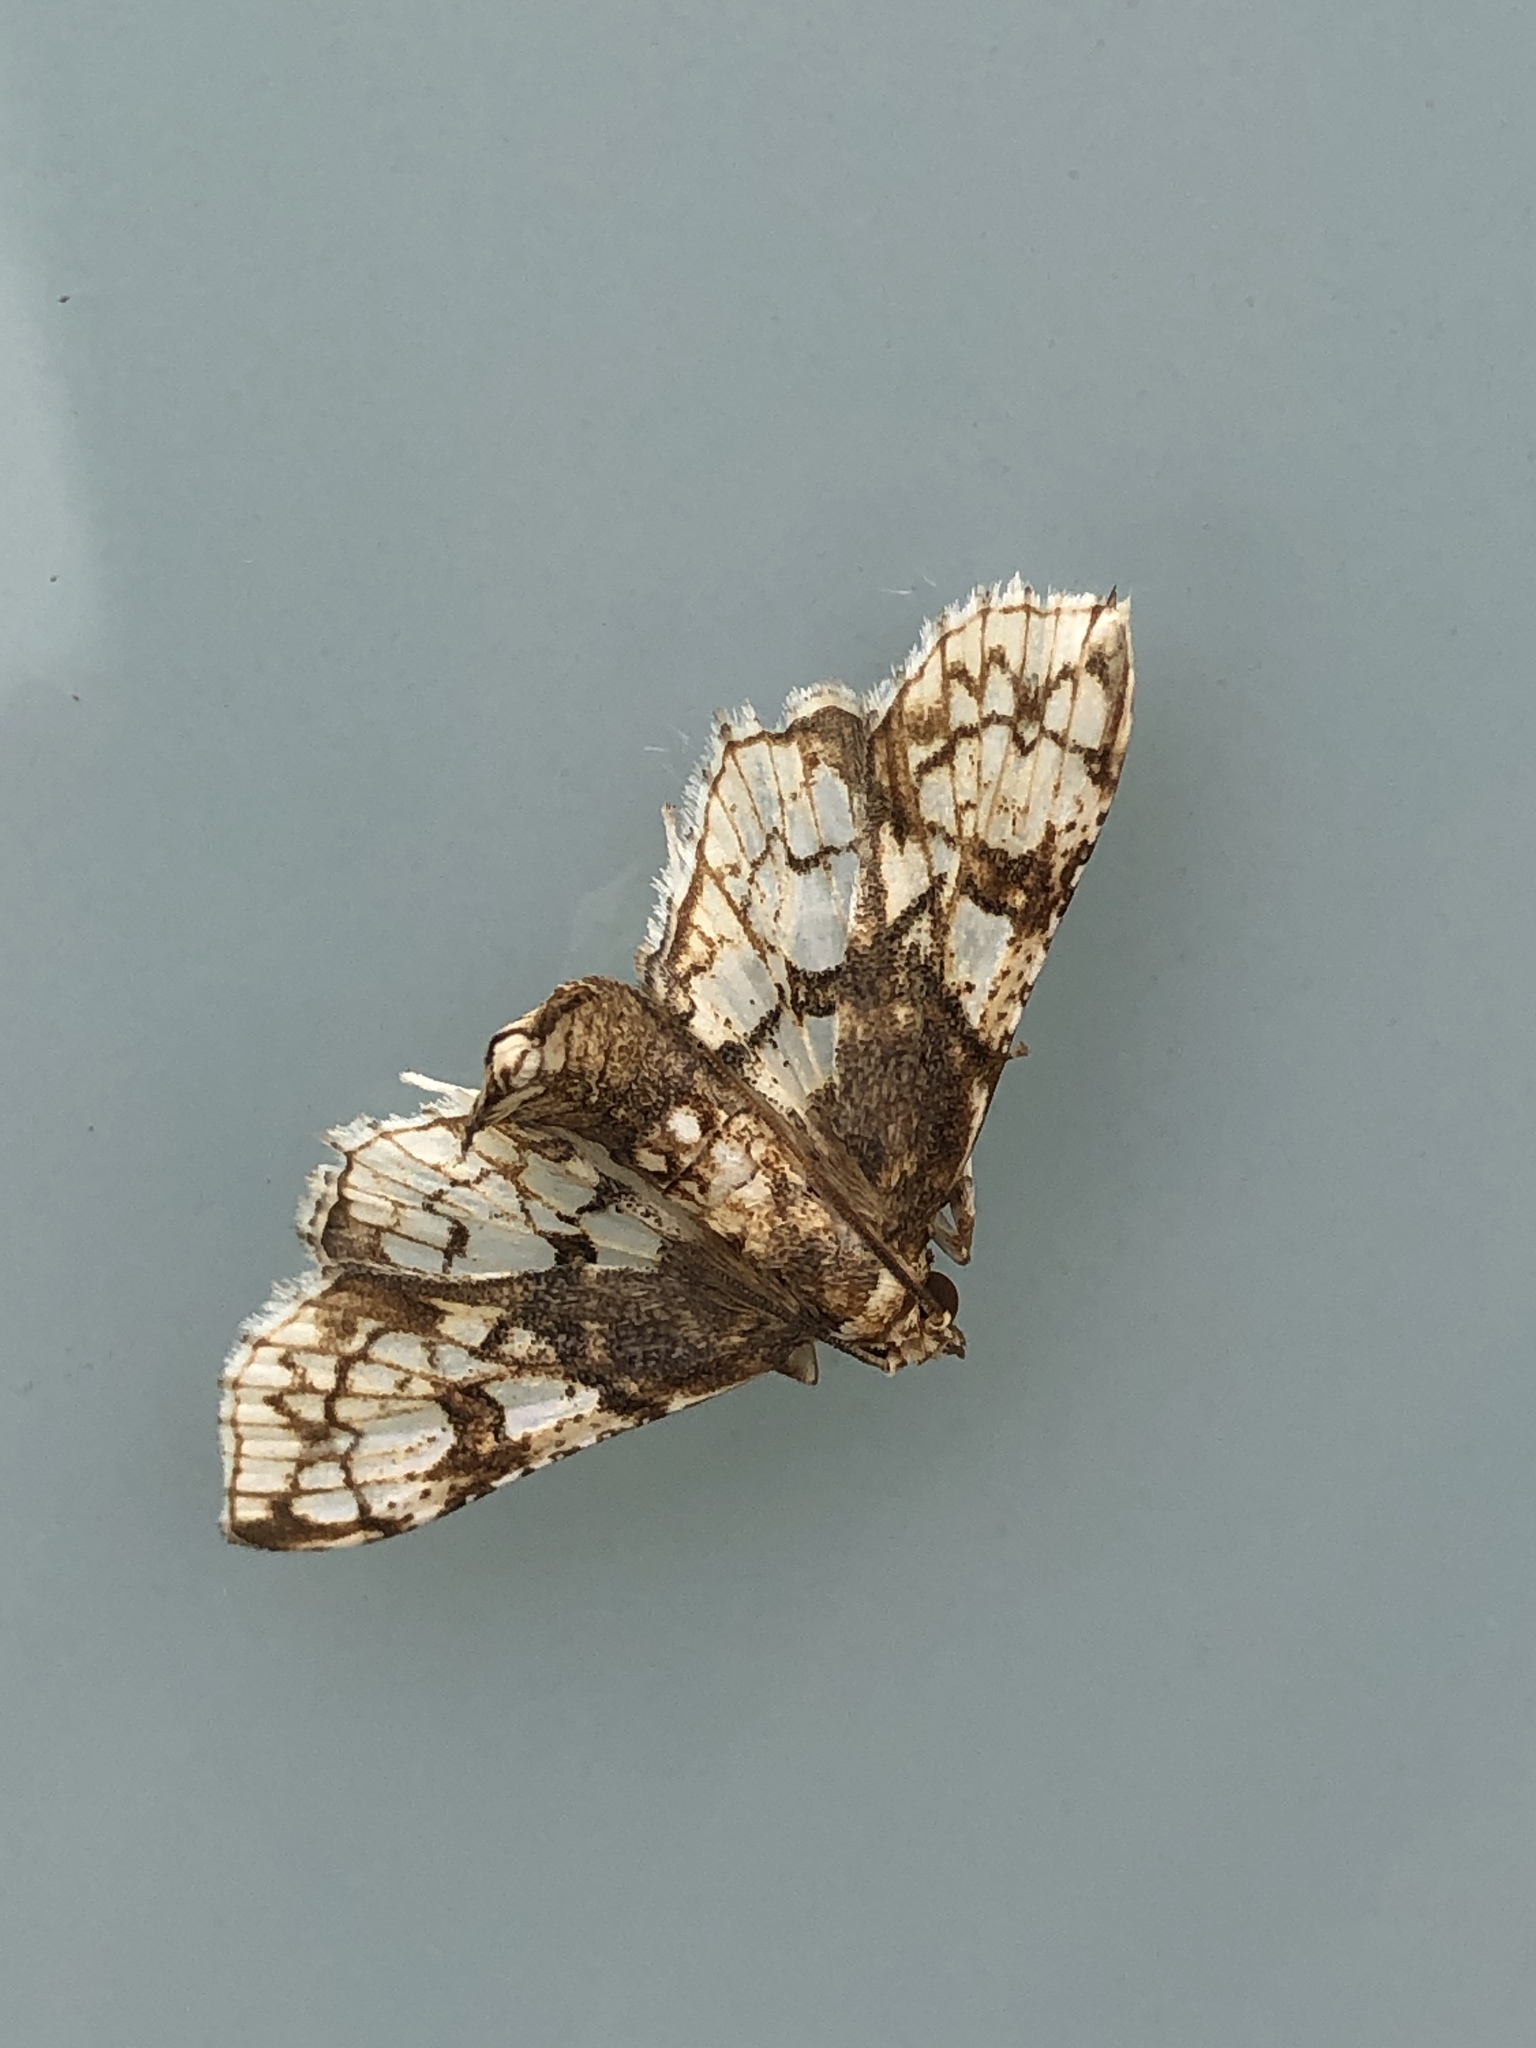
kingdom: Animalia
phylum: Arthropoda
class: Insecta
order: Lepidoptera
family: Crambidae
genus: Omphisa
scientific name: Omphisa anastomosalis
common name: Sweetpotato vineborer
